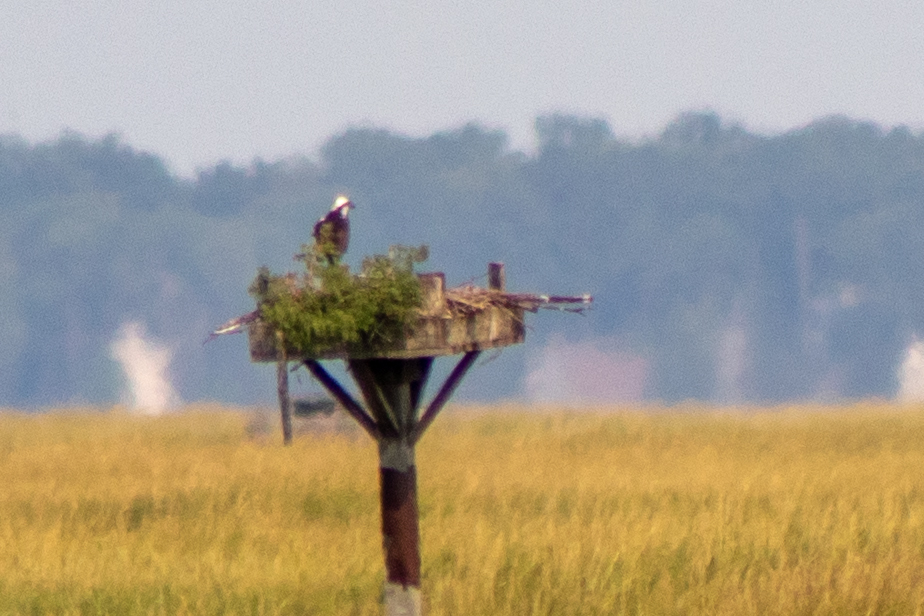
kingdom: Animalia
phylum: Chordata
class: Aves
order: Accipitriformes
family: Pandionidae
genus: Pandion
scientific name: Pandion haliaetus
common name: Osprey
